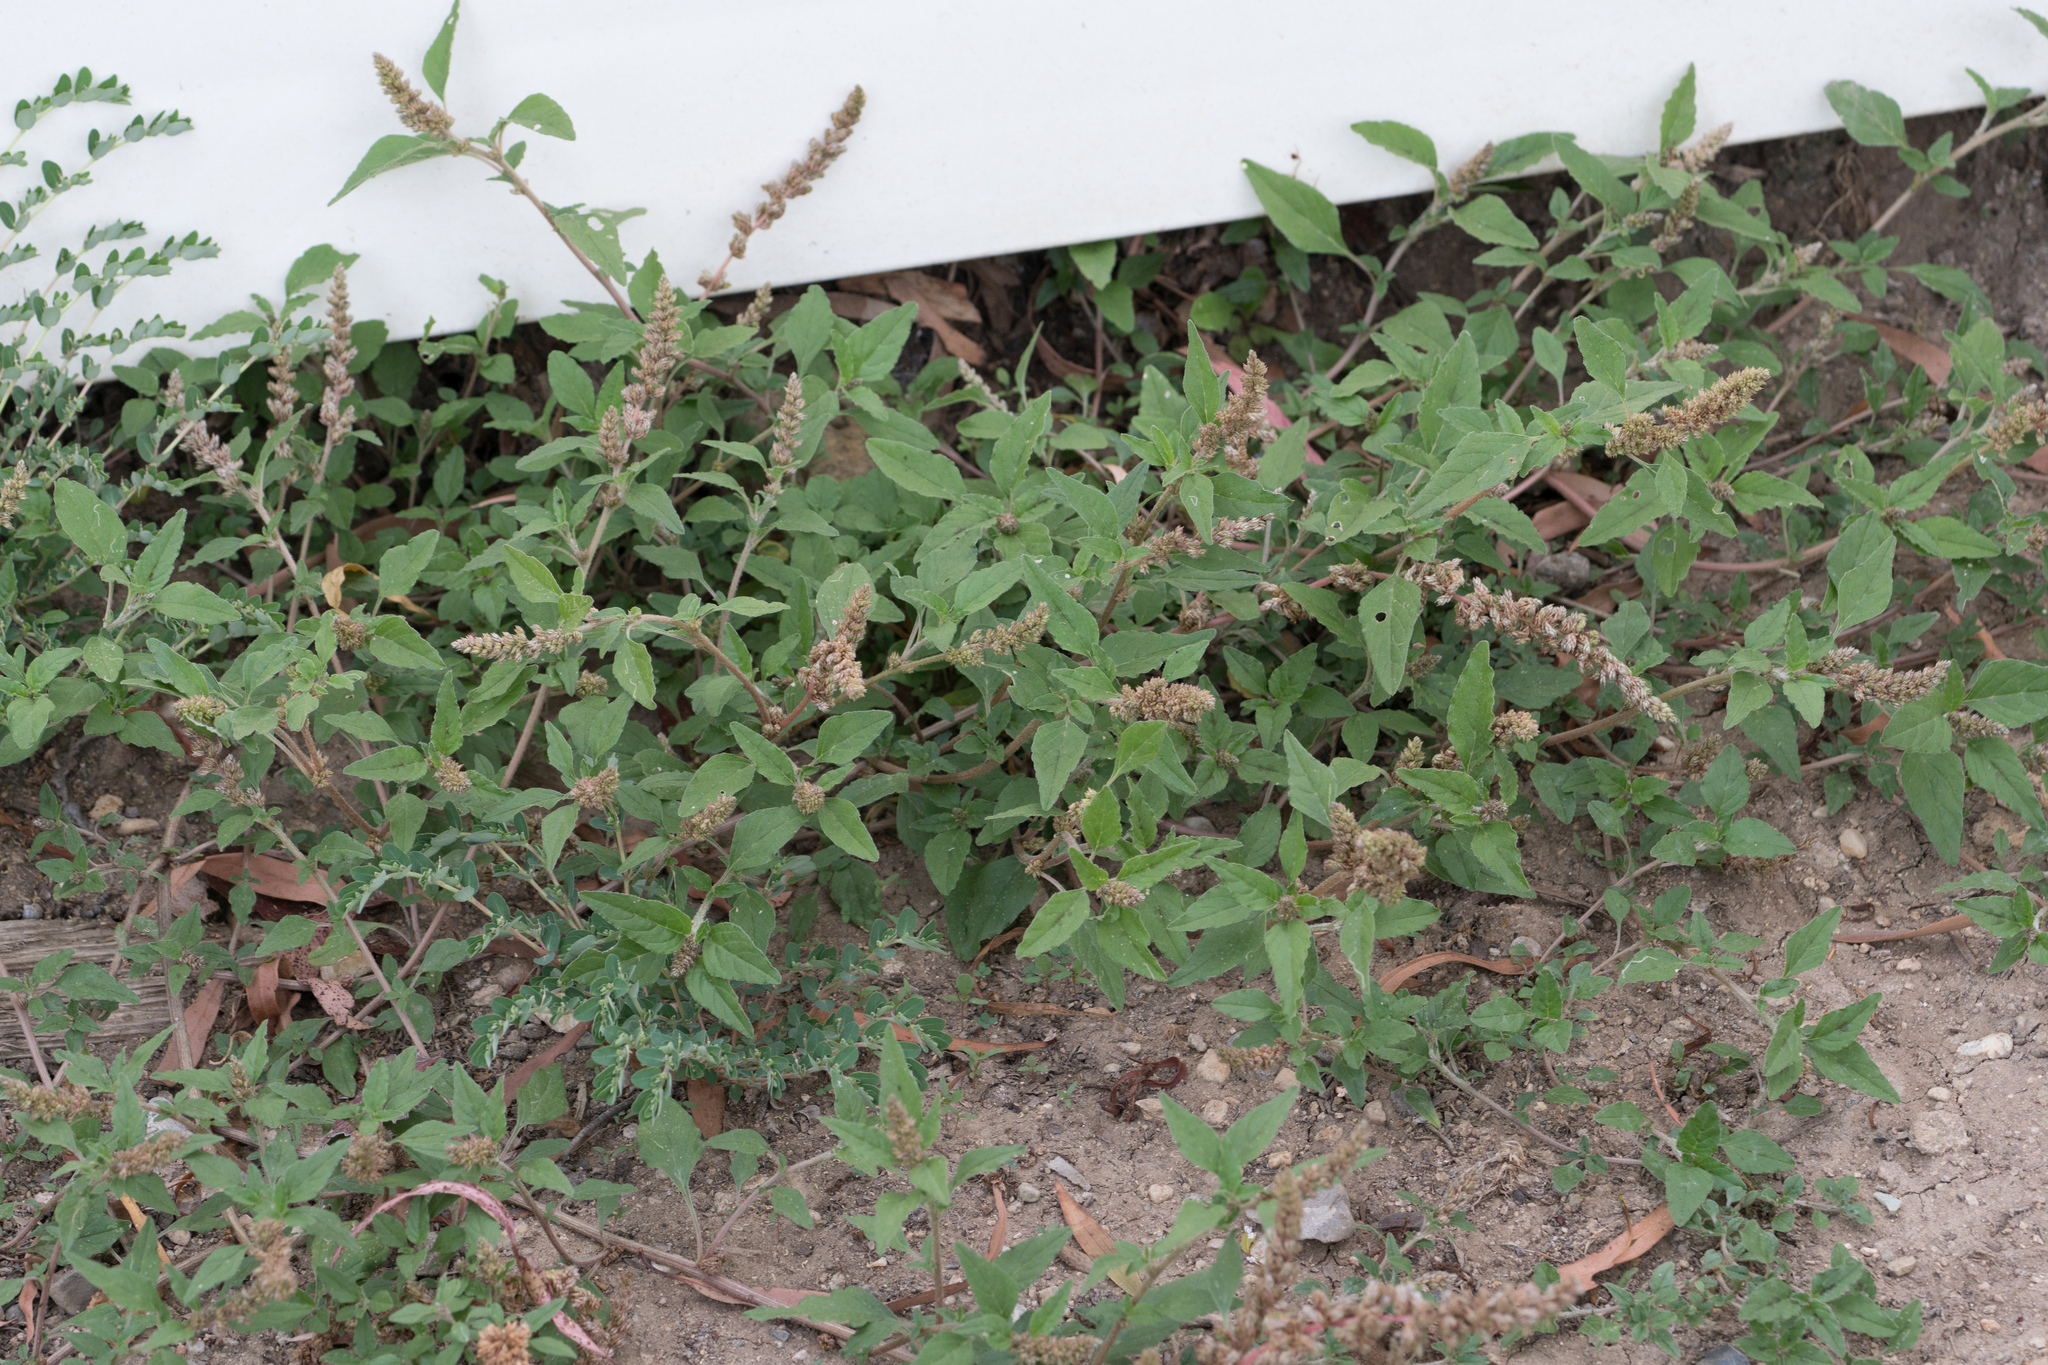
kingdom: Plantae
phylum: Tracheophyta
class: Magnoliopsida
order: Caryophyllales
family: Amaranthaceae
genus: Amaranthus
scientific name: Amaranthus deflexus
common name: Perennial pigweed
